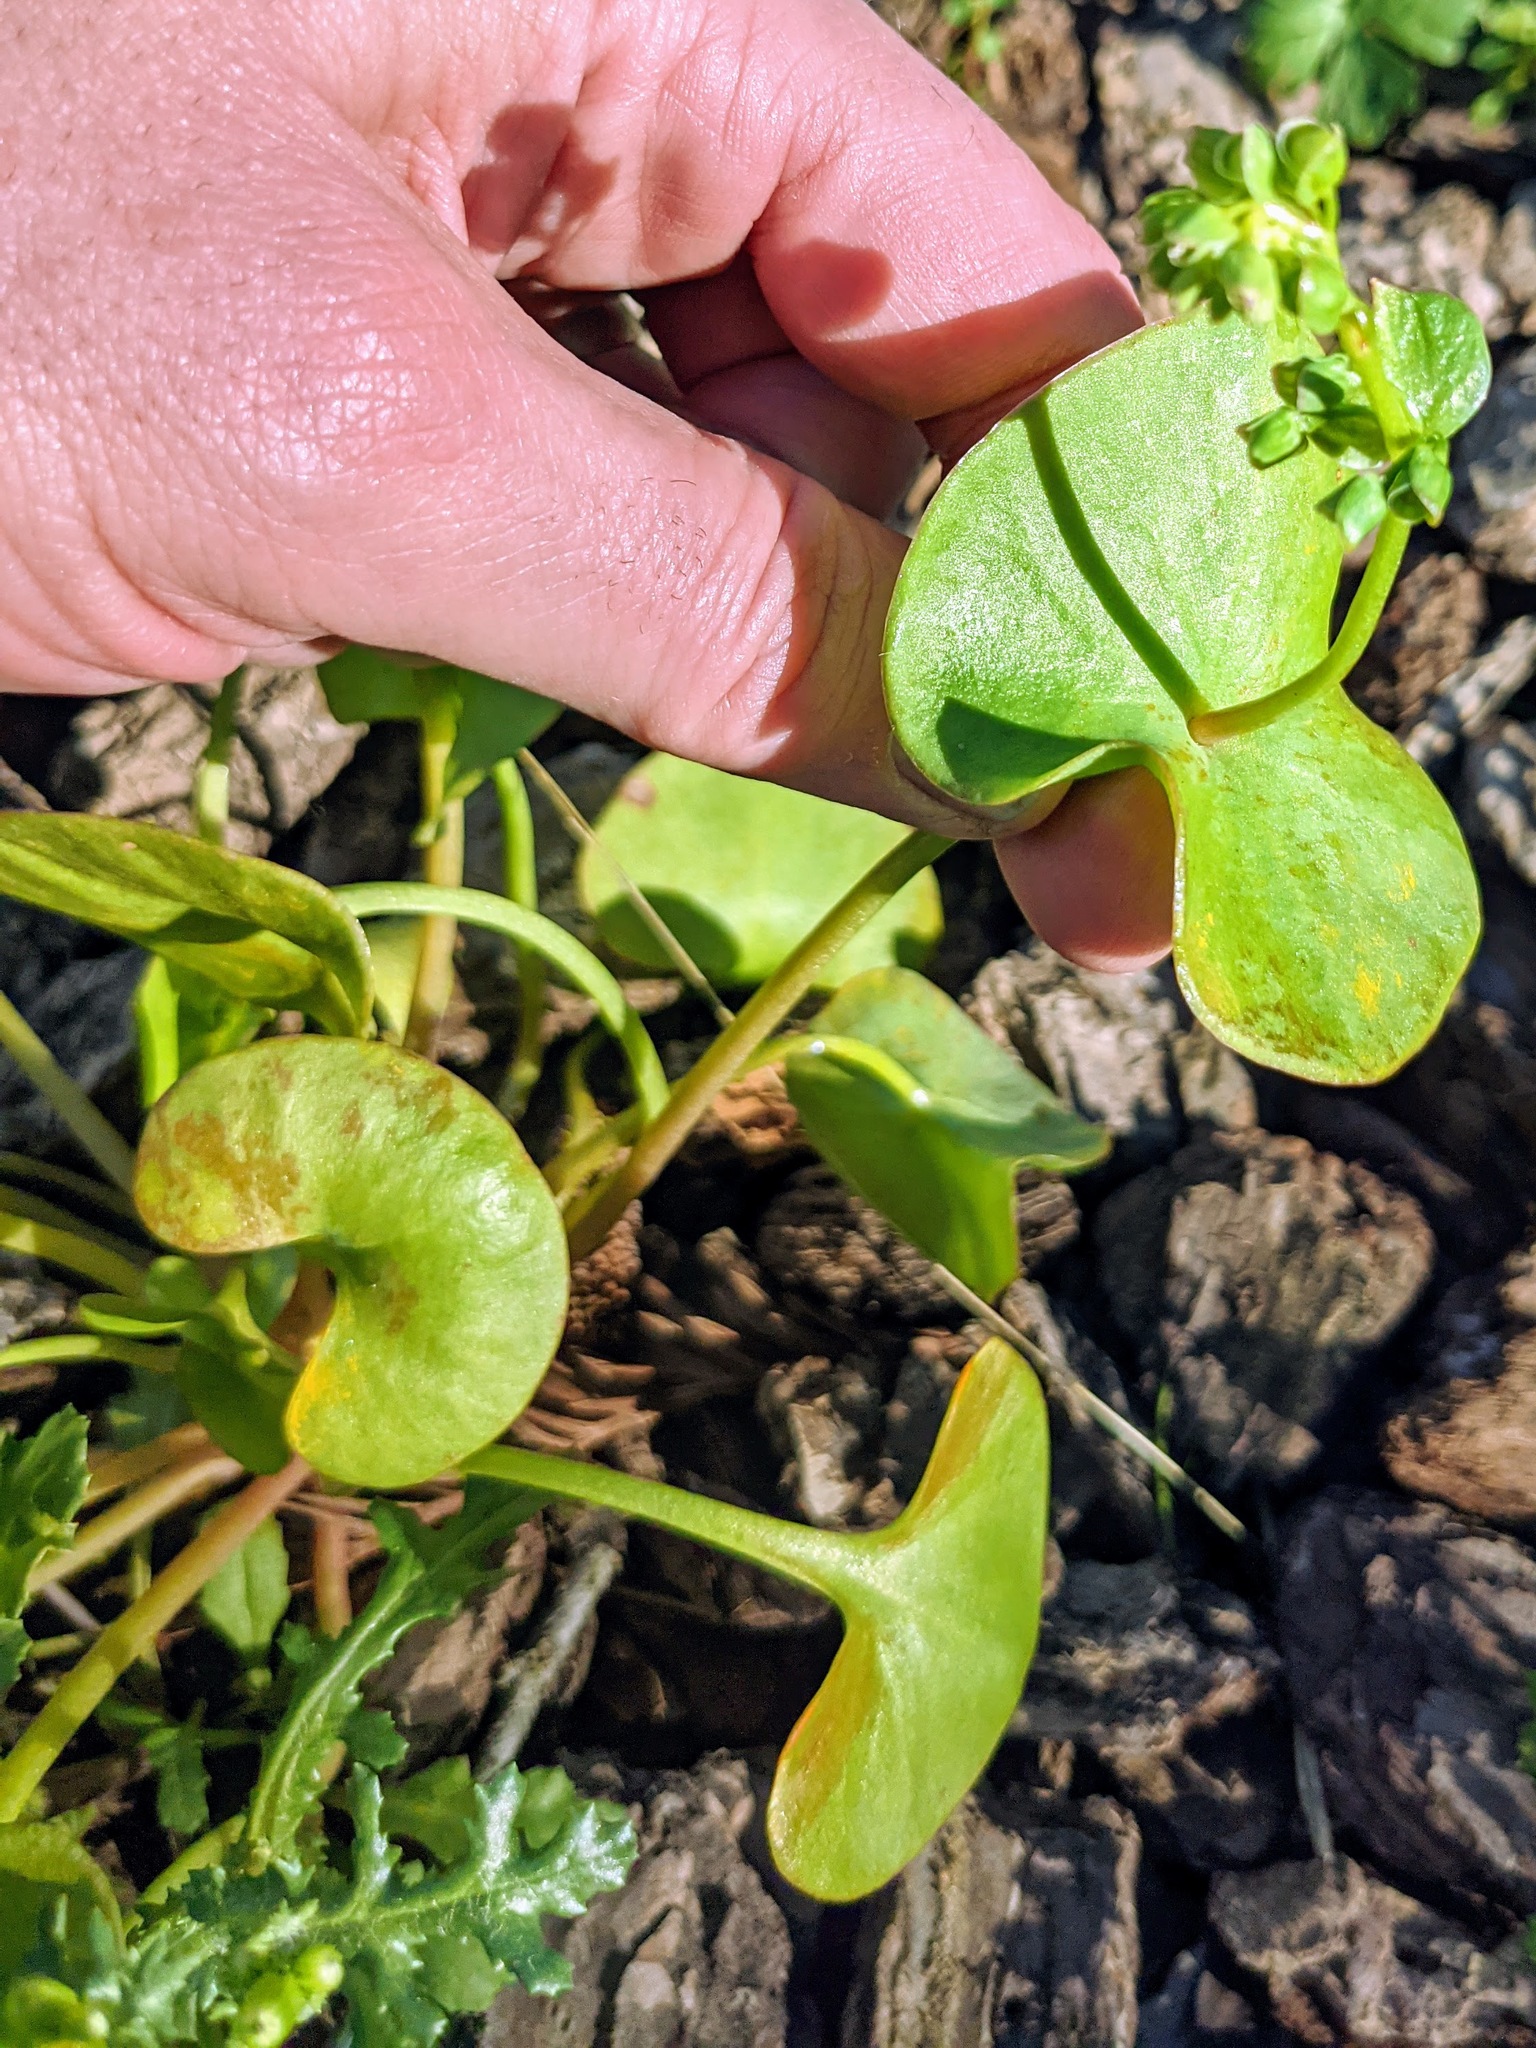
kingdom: Plantae
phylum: Tracheophyta
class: Magnoliopsida
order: Caryophyllales
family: Montiaceae
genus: Claytonia
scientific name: Claytonia perfoliata
